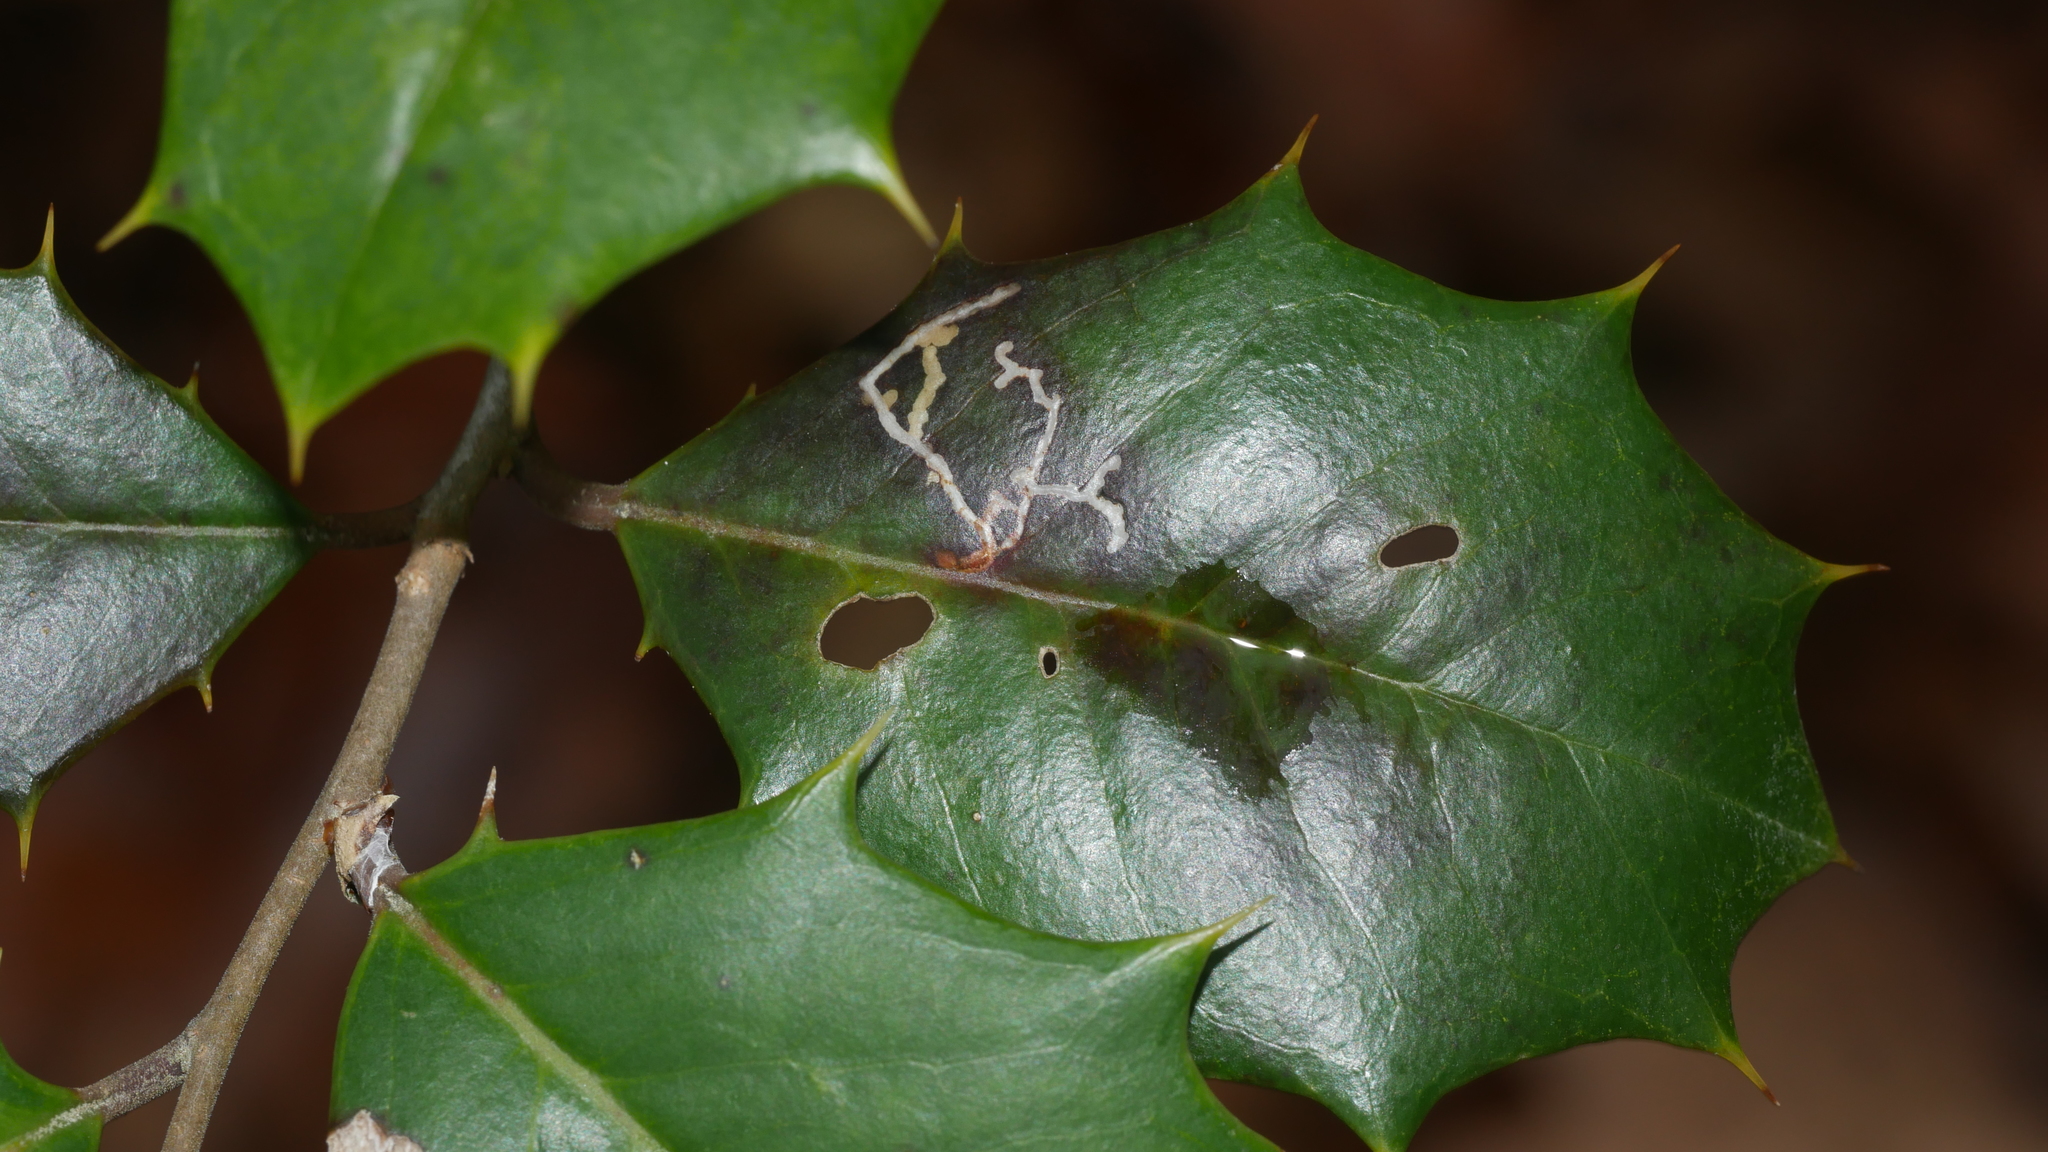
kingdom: Animalia
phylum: Arthropoda
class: Insecta
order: Lepidoptera
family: Tortricidae
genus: Rhopobota
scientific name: Rhopobota
